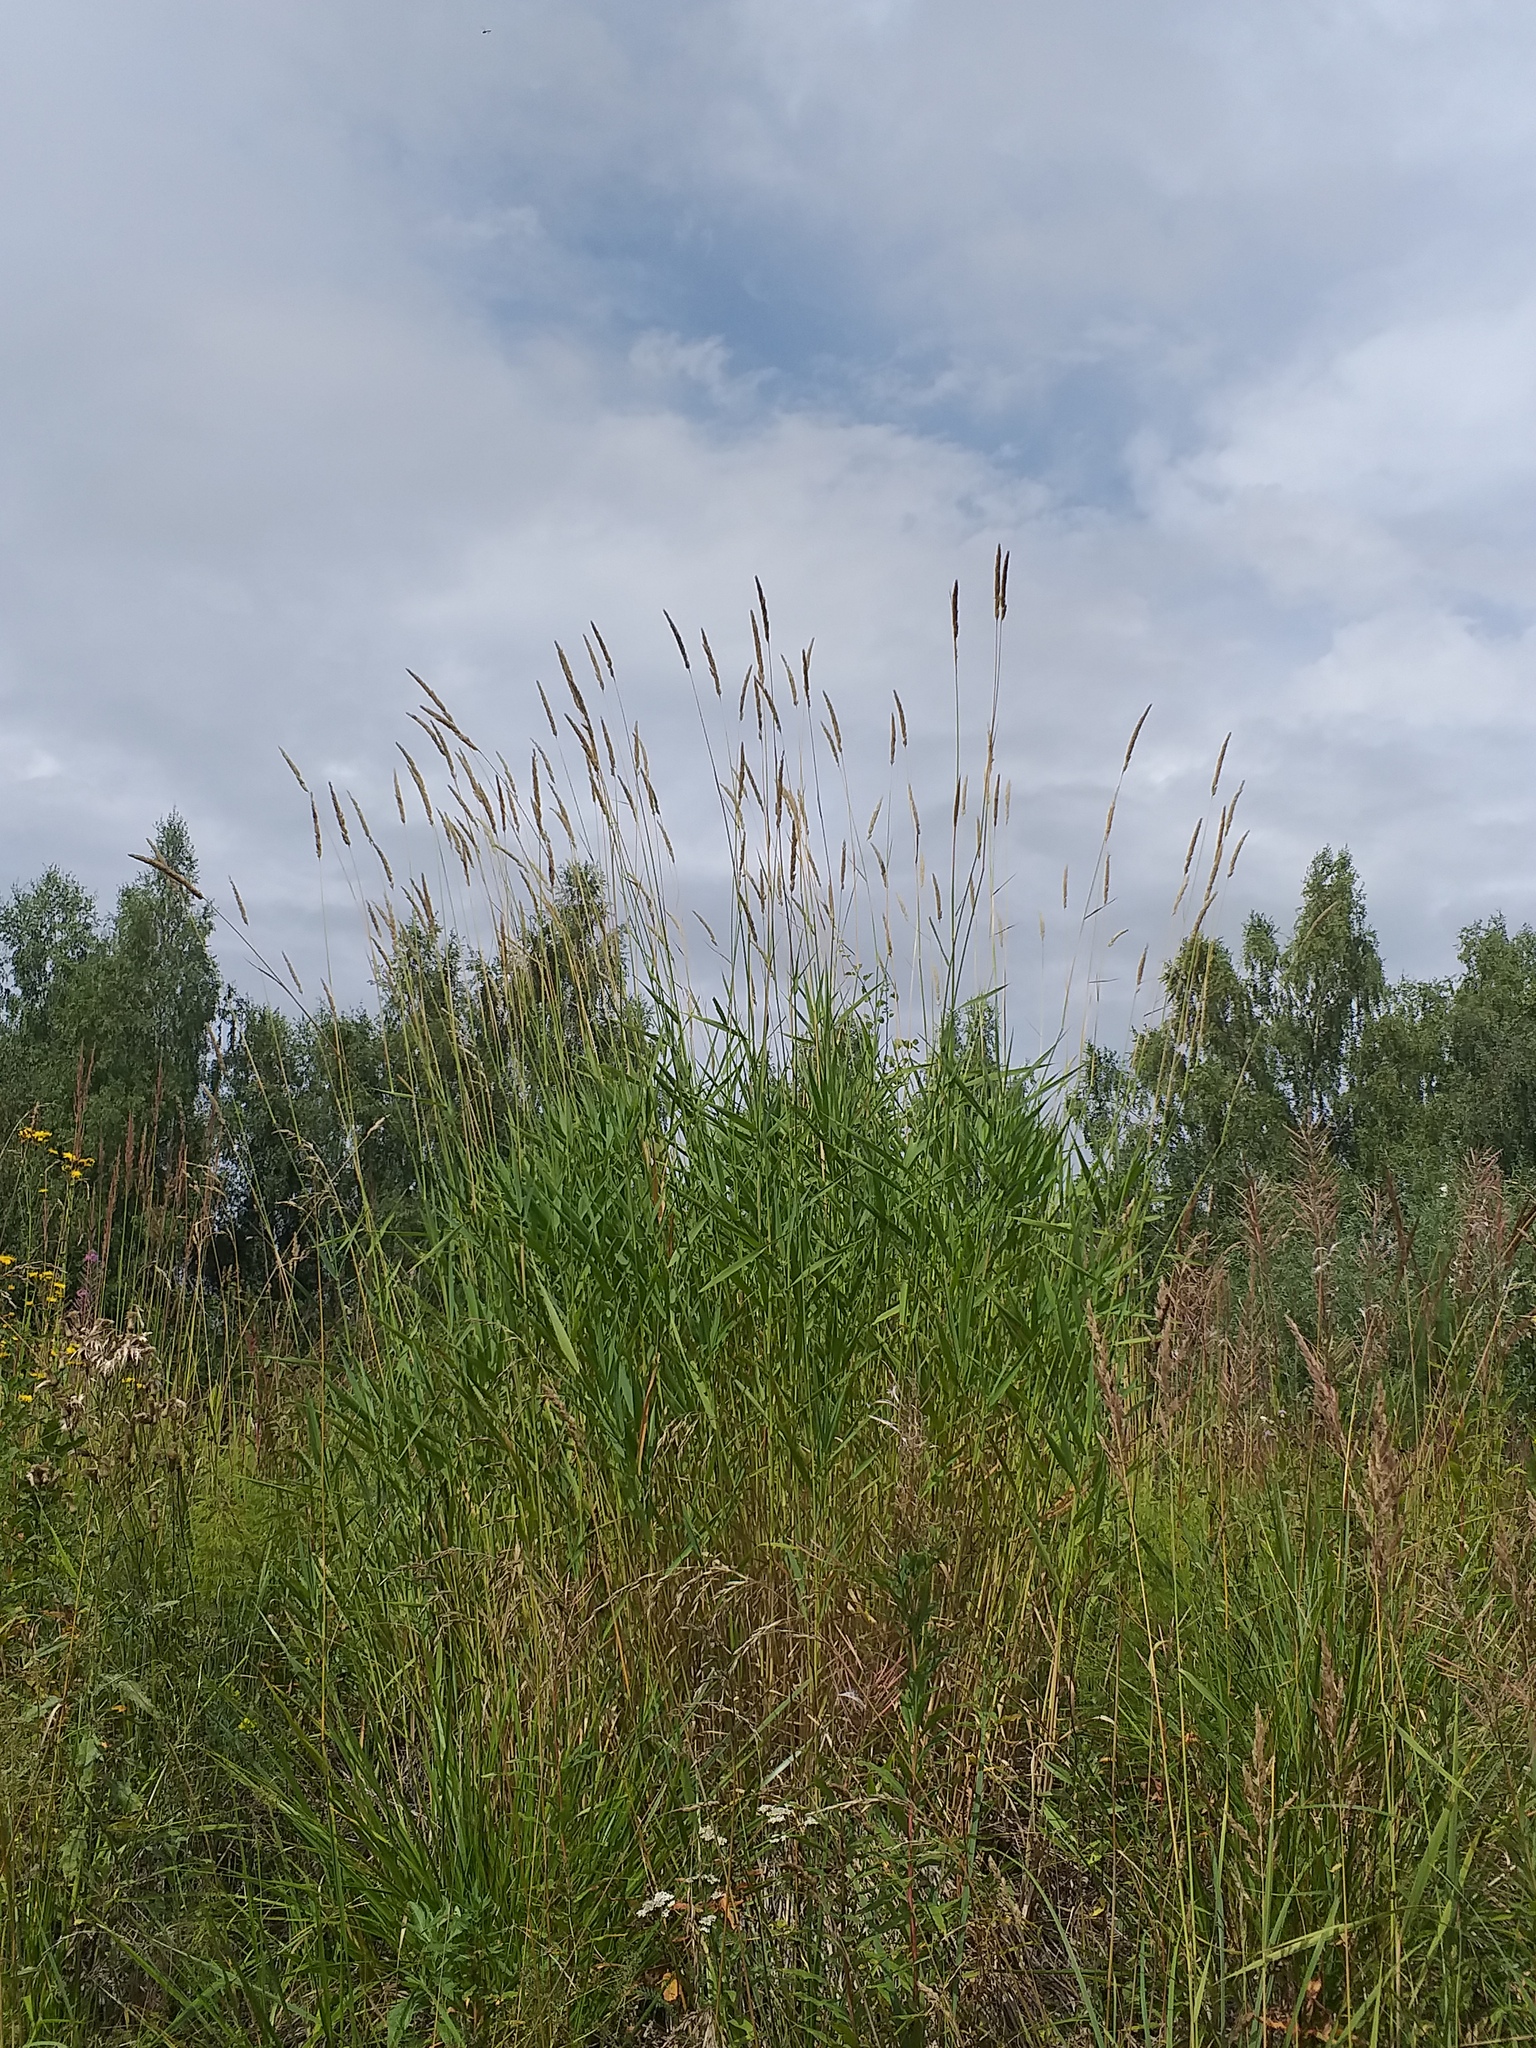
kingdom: Plantae
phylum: Tracheophyta
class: Liliopsida
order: Poales
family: Poaceae
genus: Phalaris
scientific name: Phalaris arundinacea
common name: Reed canary-grass
